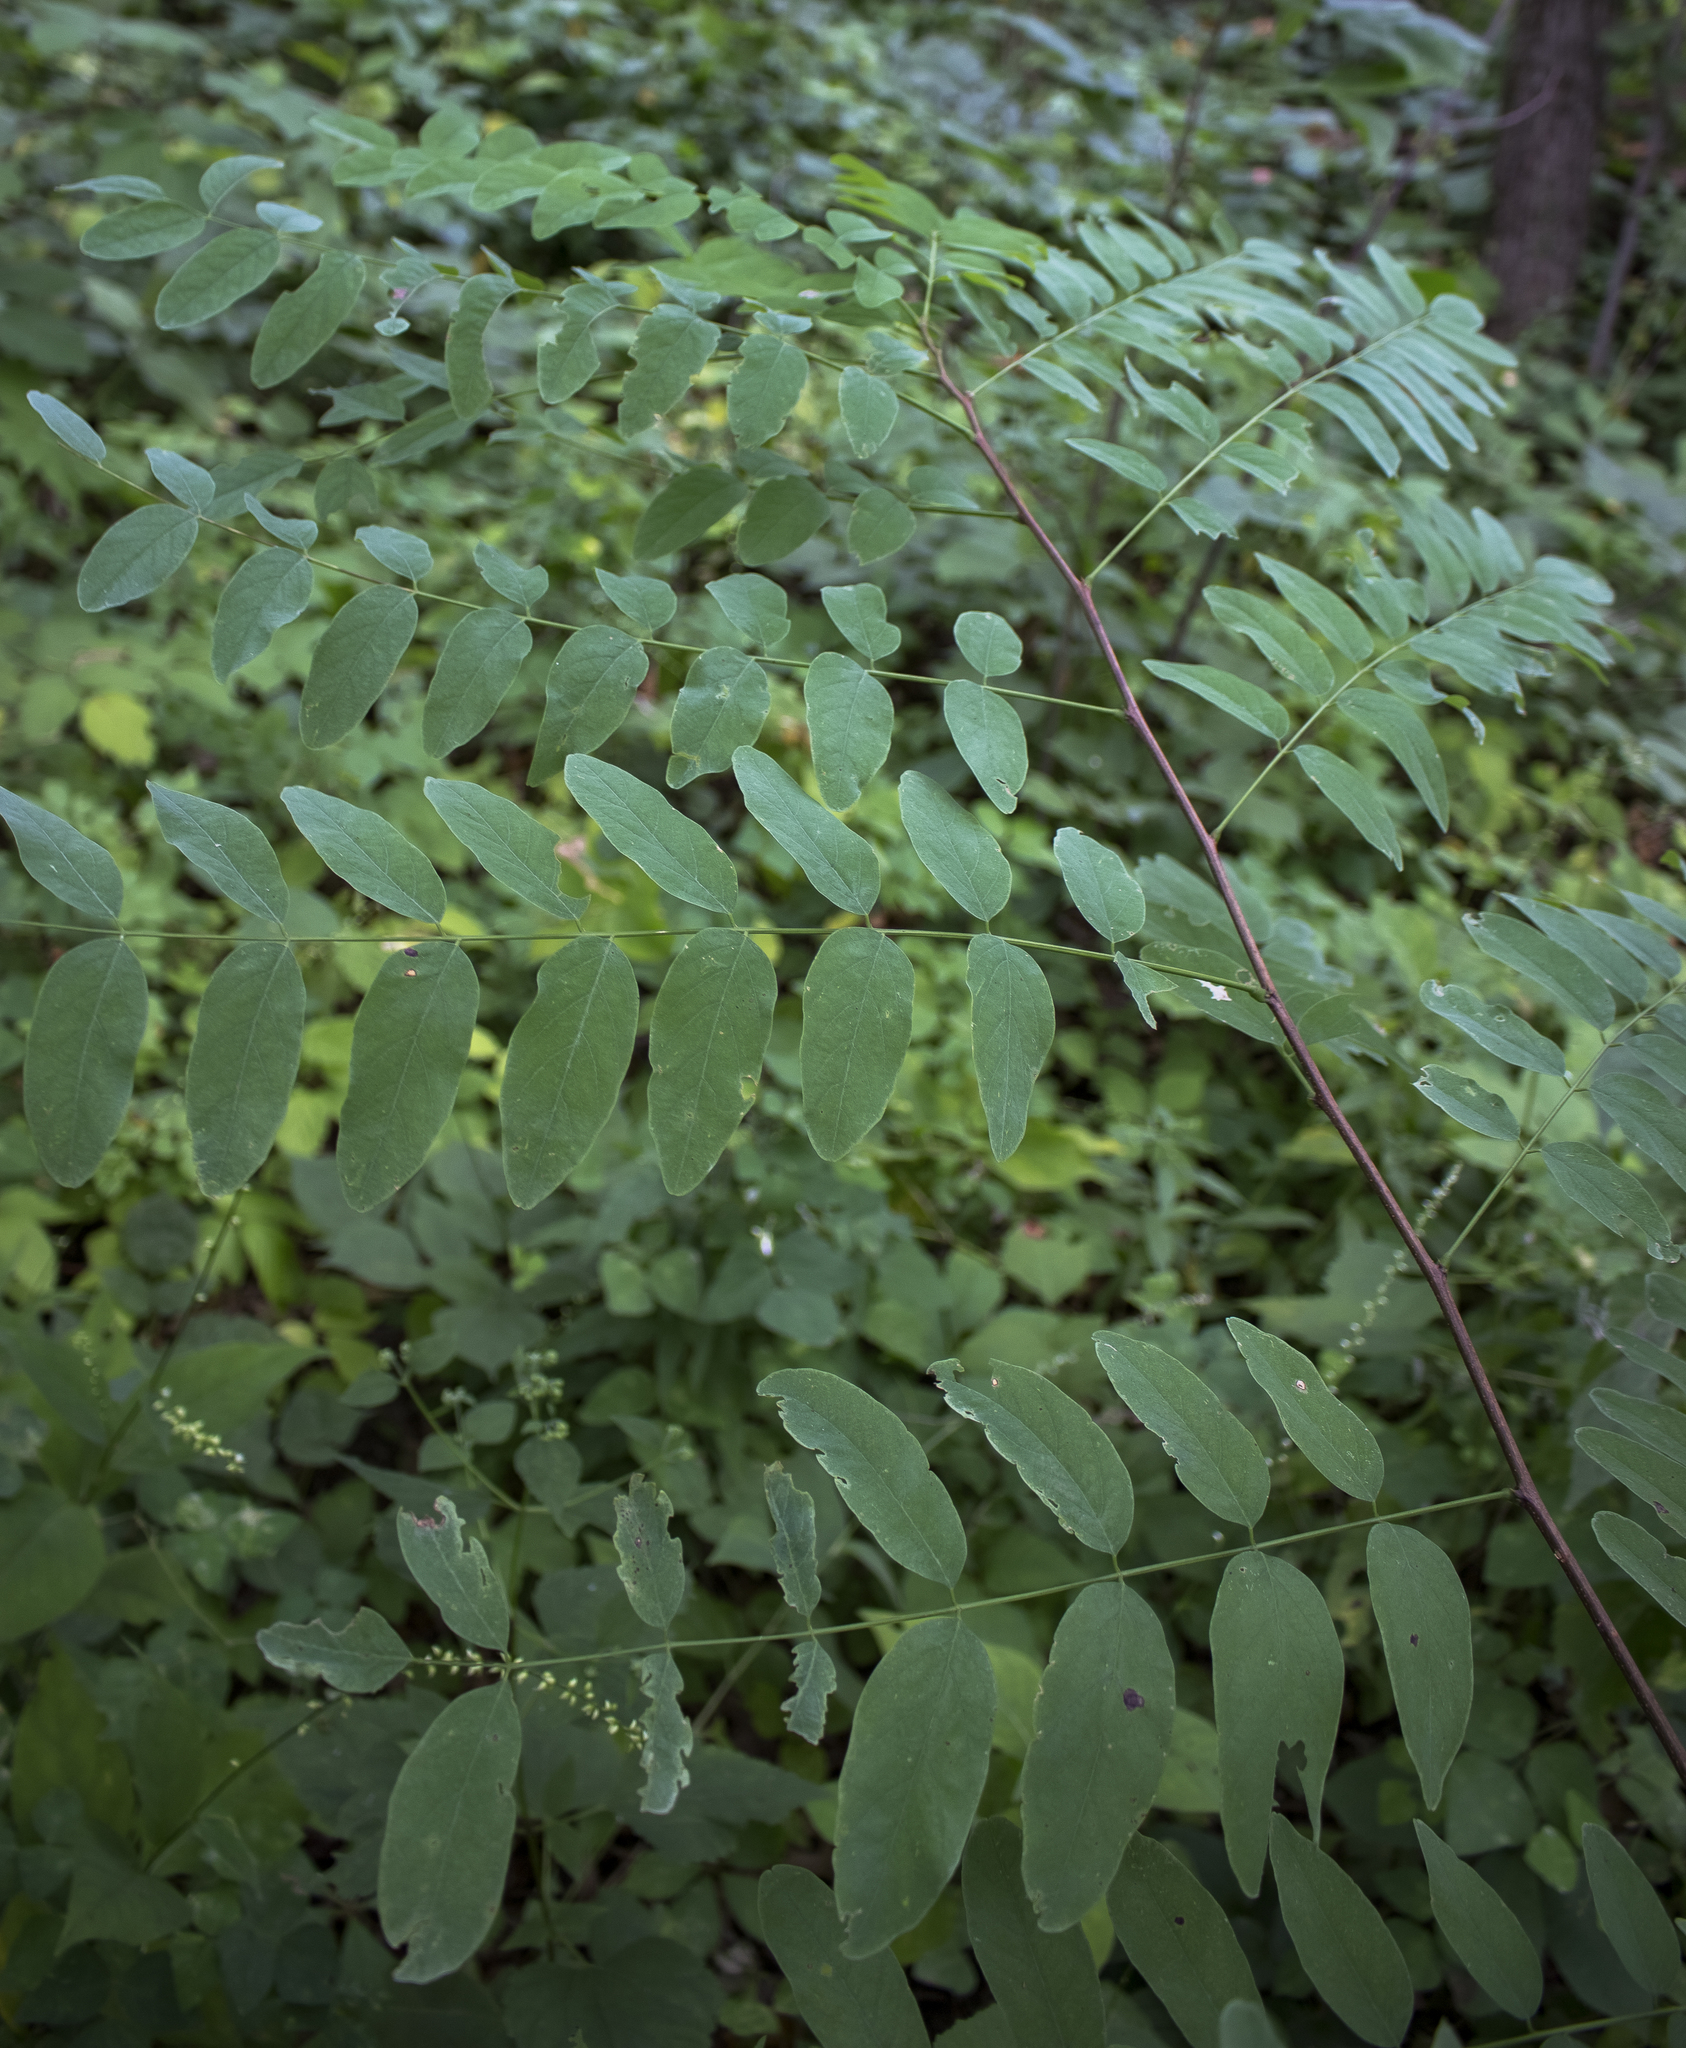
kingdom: Plantae
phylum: Tracheophyta
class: Magnoliopsida
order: Fabales
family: Fabaceae
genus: Robinia
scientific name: Robinia pseudoacacia
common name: Black locust
